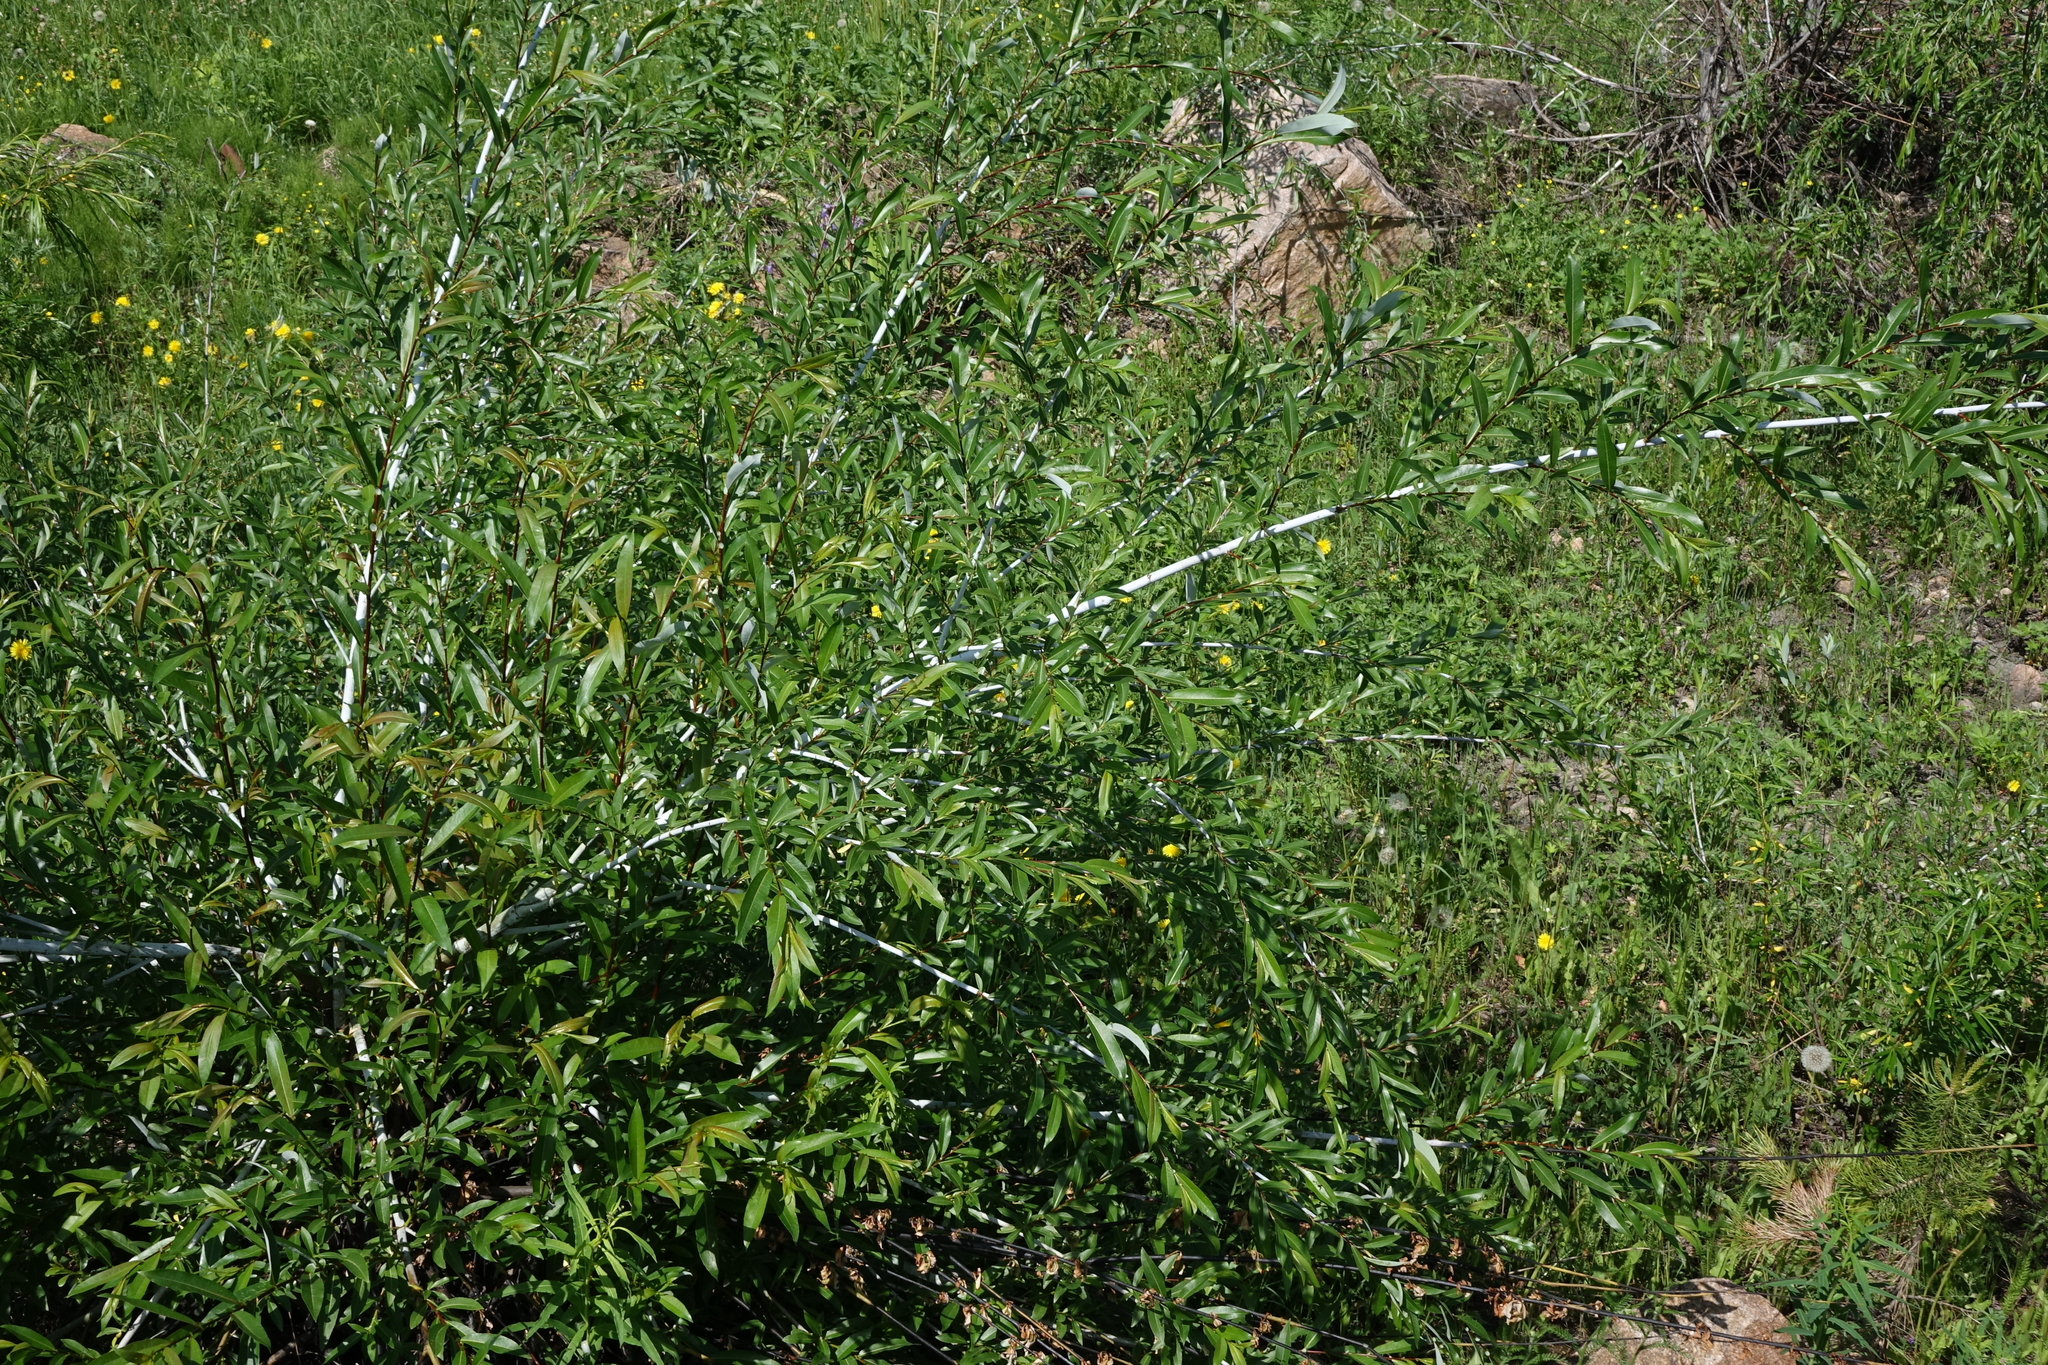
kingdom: Plantae
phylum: Tracheophyta
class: Magnoliopsida
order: Malpighiales
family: Salicaceae
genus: Salix
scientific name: Salix rorida
